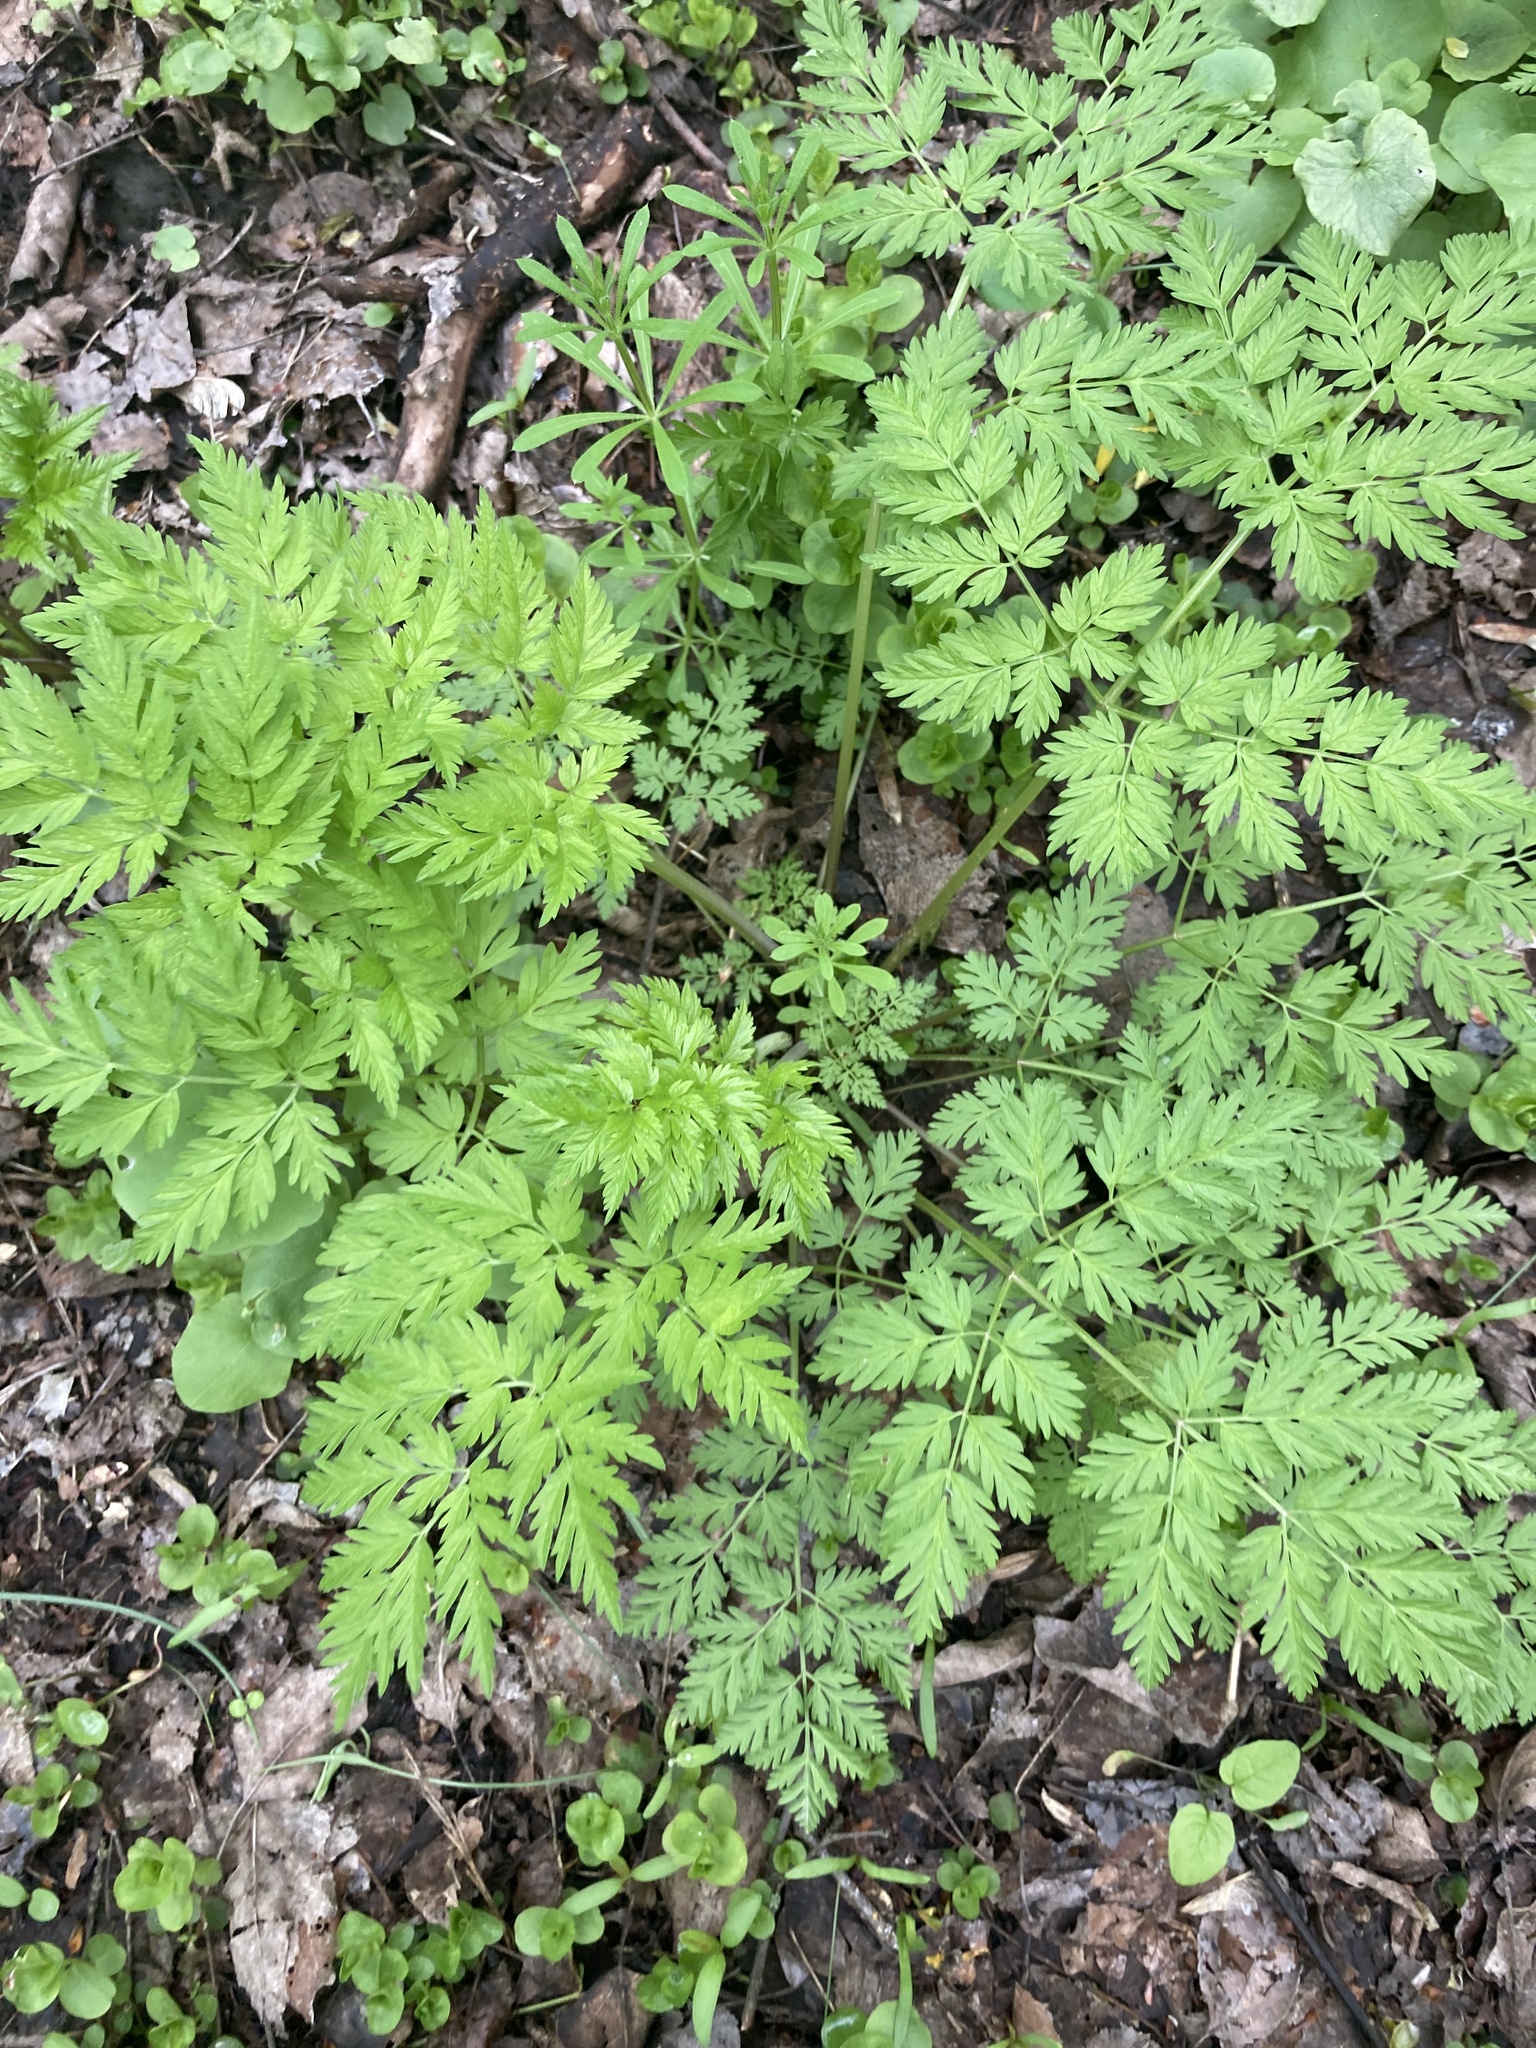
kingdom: Plantae
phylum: Tracheophyta
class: Magnoliopsida
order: Apiales
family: Apiaceae
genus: Anthriscus
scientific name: Anthriscus sylvestris
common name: Cow parsley
